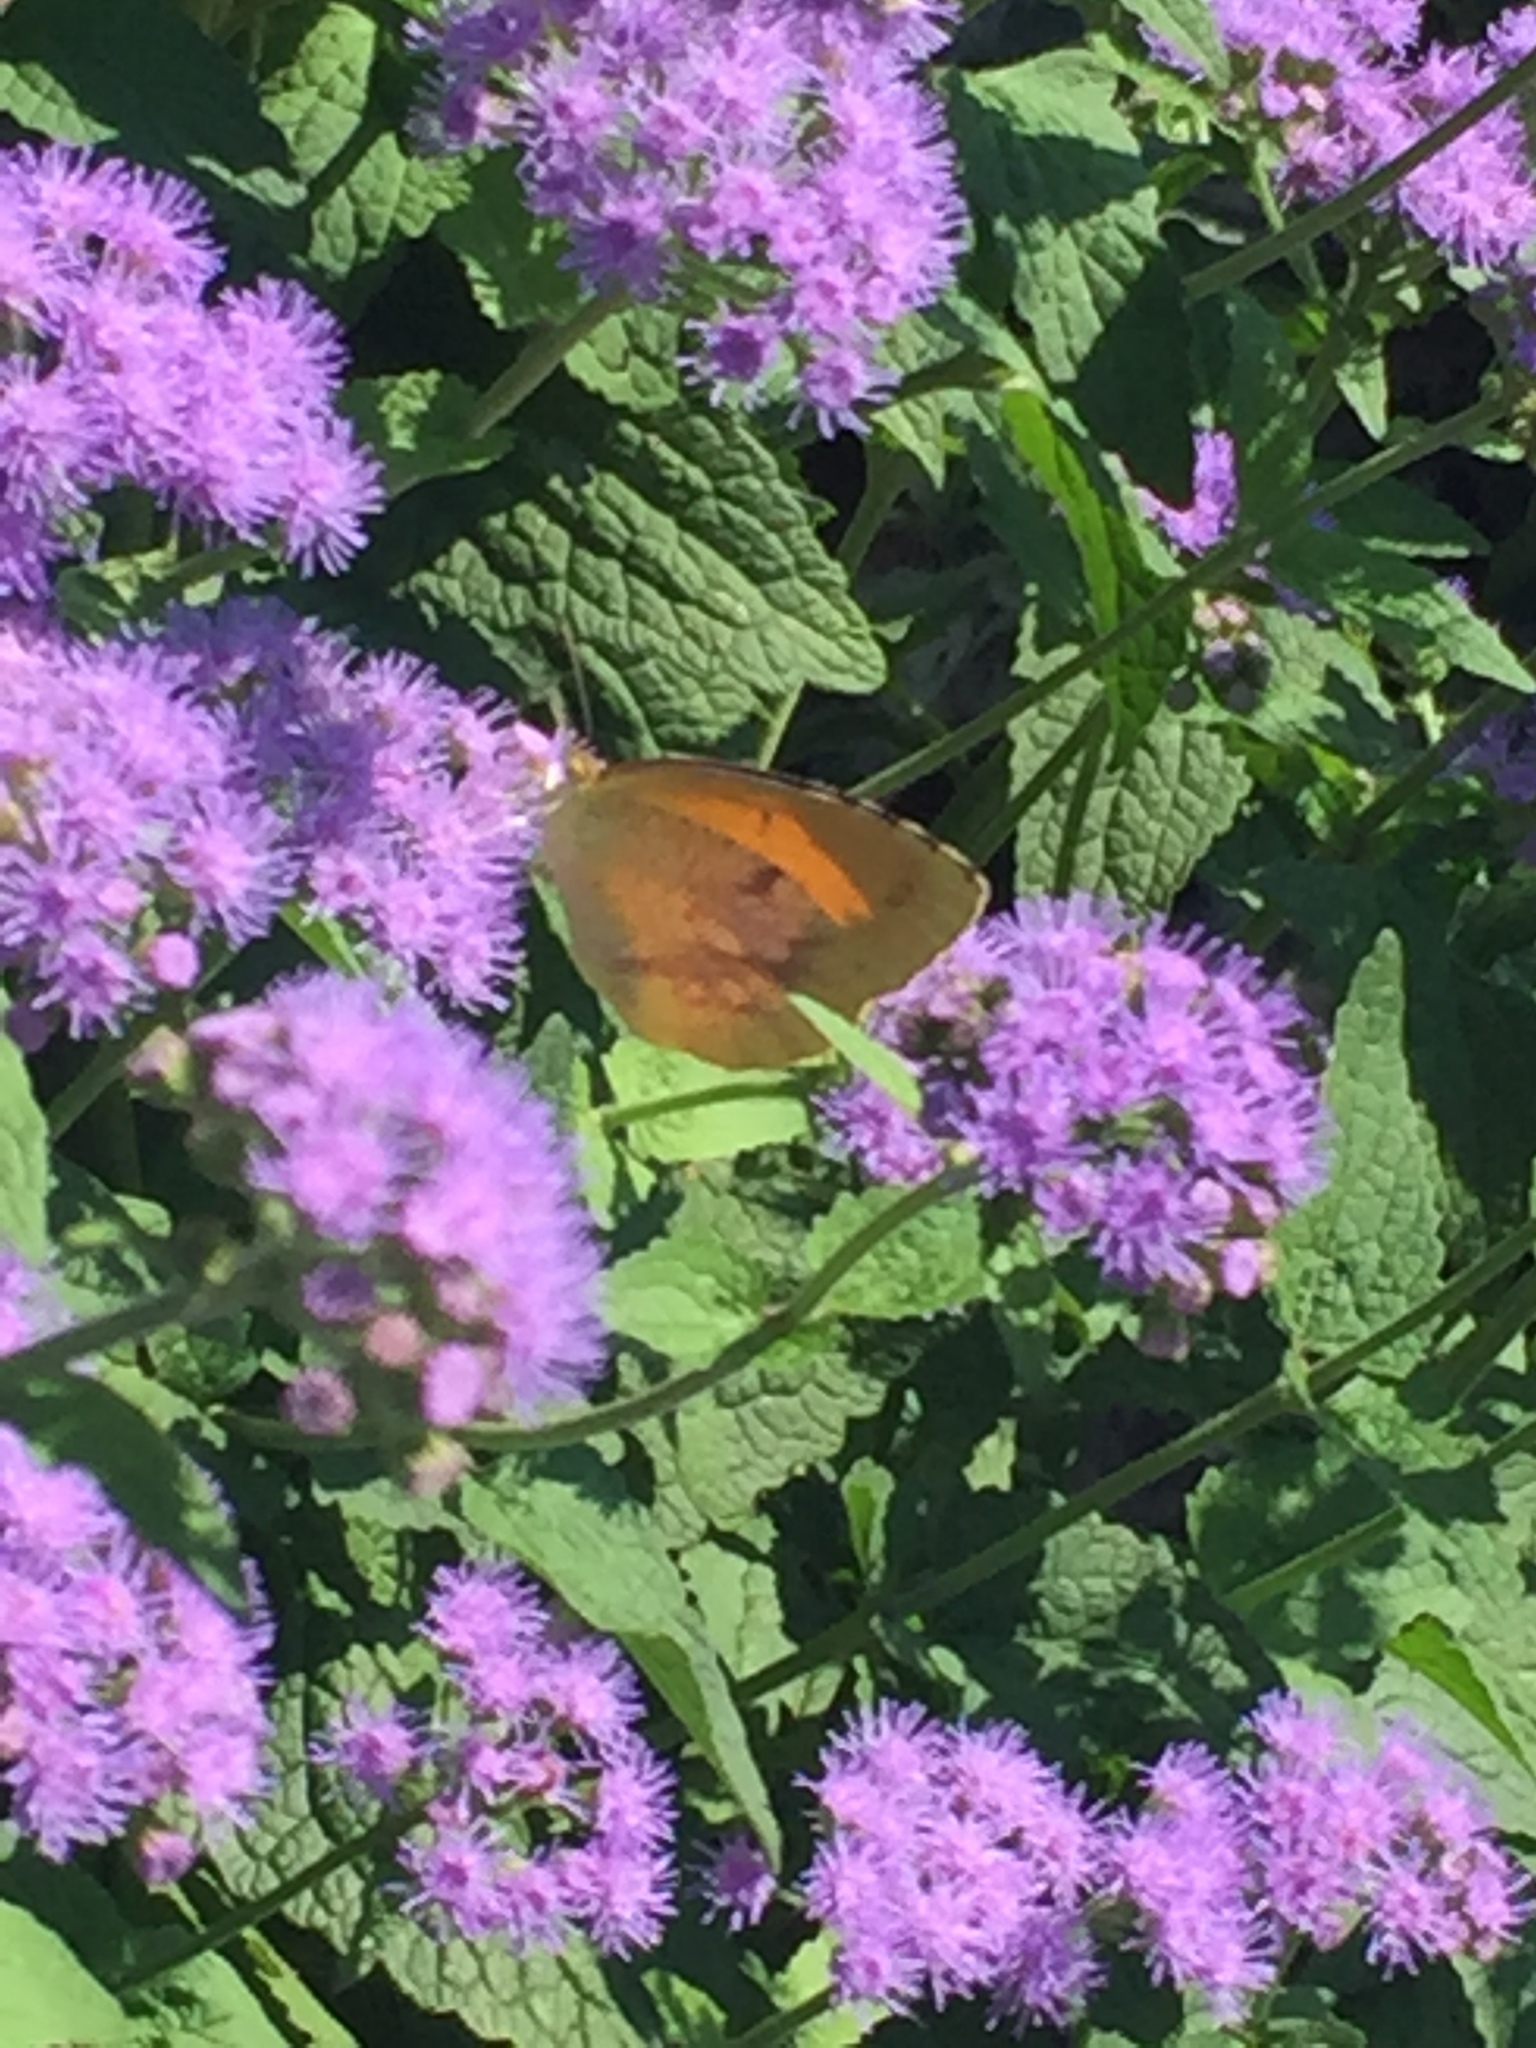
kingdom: Animalia
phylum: Arthropoda
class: Insecta
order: Lepidoptera
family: Pieridae
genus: Abaeis
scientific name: Abaeis nicippe
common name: Sleepy orange
